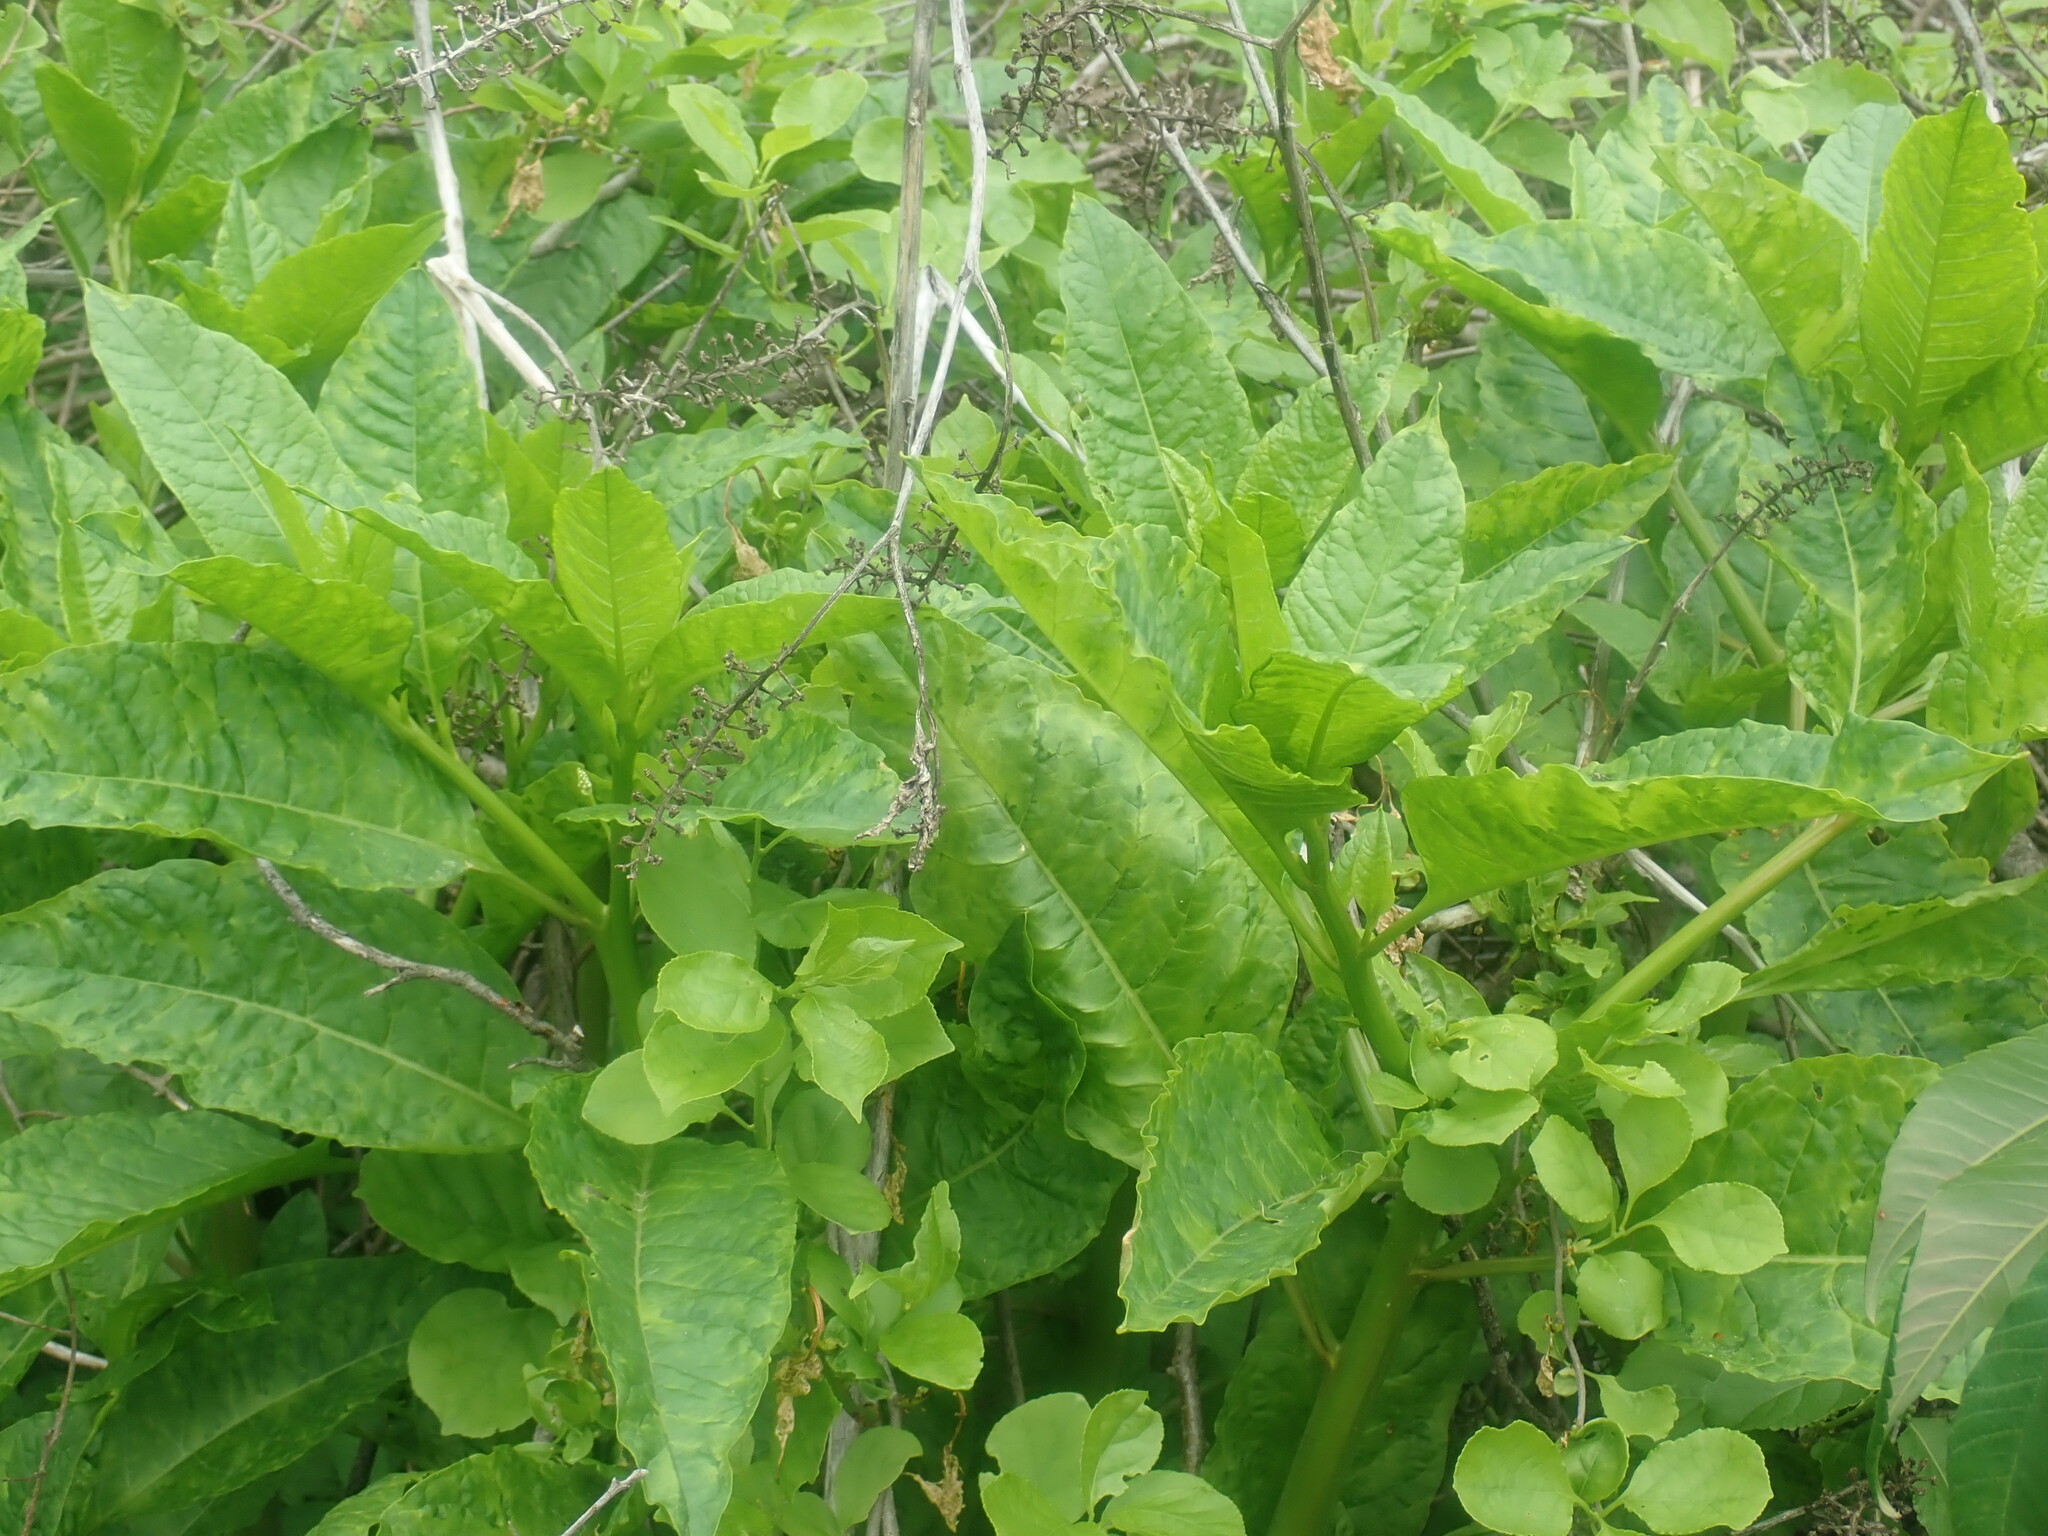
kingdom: Plantae
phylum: Tracheophyta
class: Magnoliopsida
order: Caryophyllales
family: Phytolaccaceae
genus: Phytolacca
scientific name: Phytolacca americana
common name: American pokeweed
